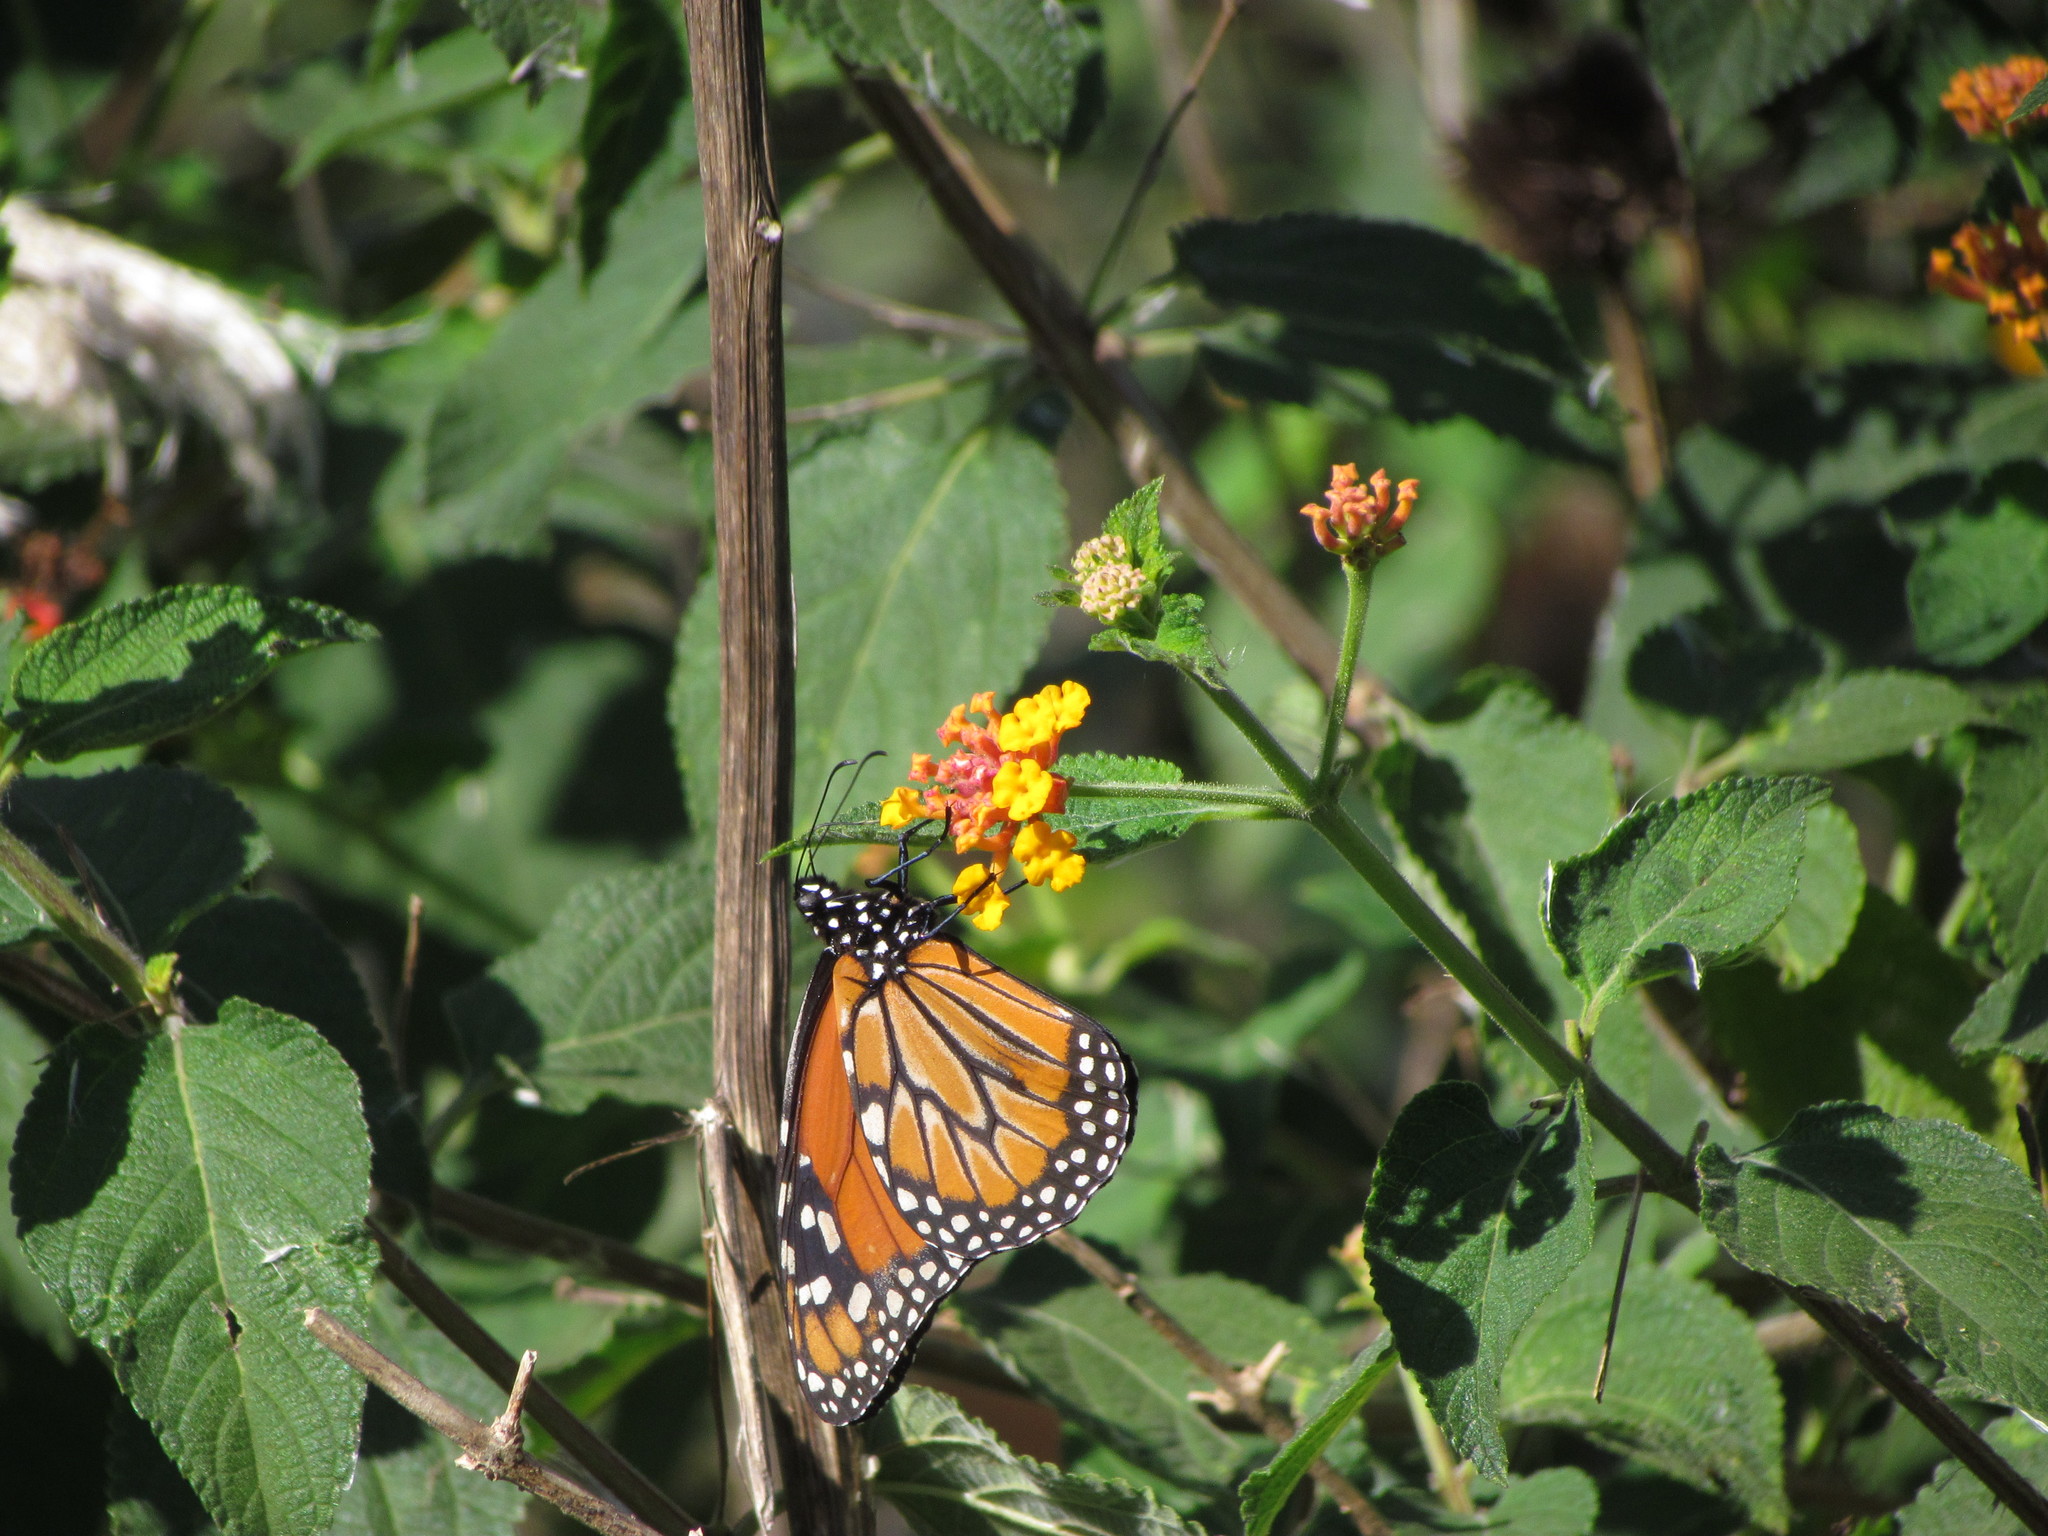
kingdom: Animalia
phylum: Arthropoda
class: Insecta
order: Lepidoptera
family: Nymphalidae
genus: Danaus
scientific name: Danaus erippus
